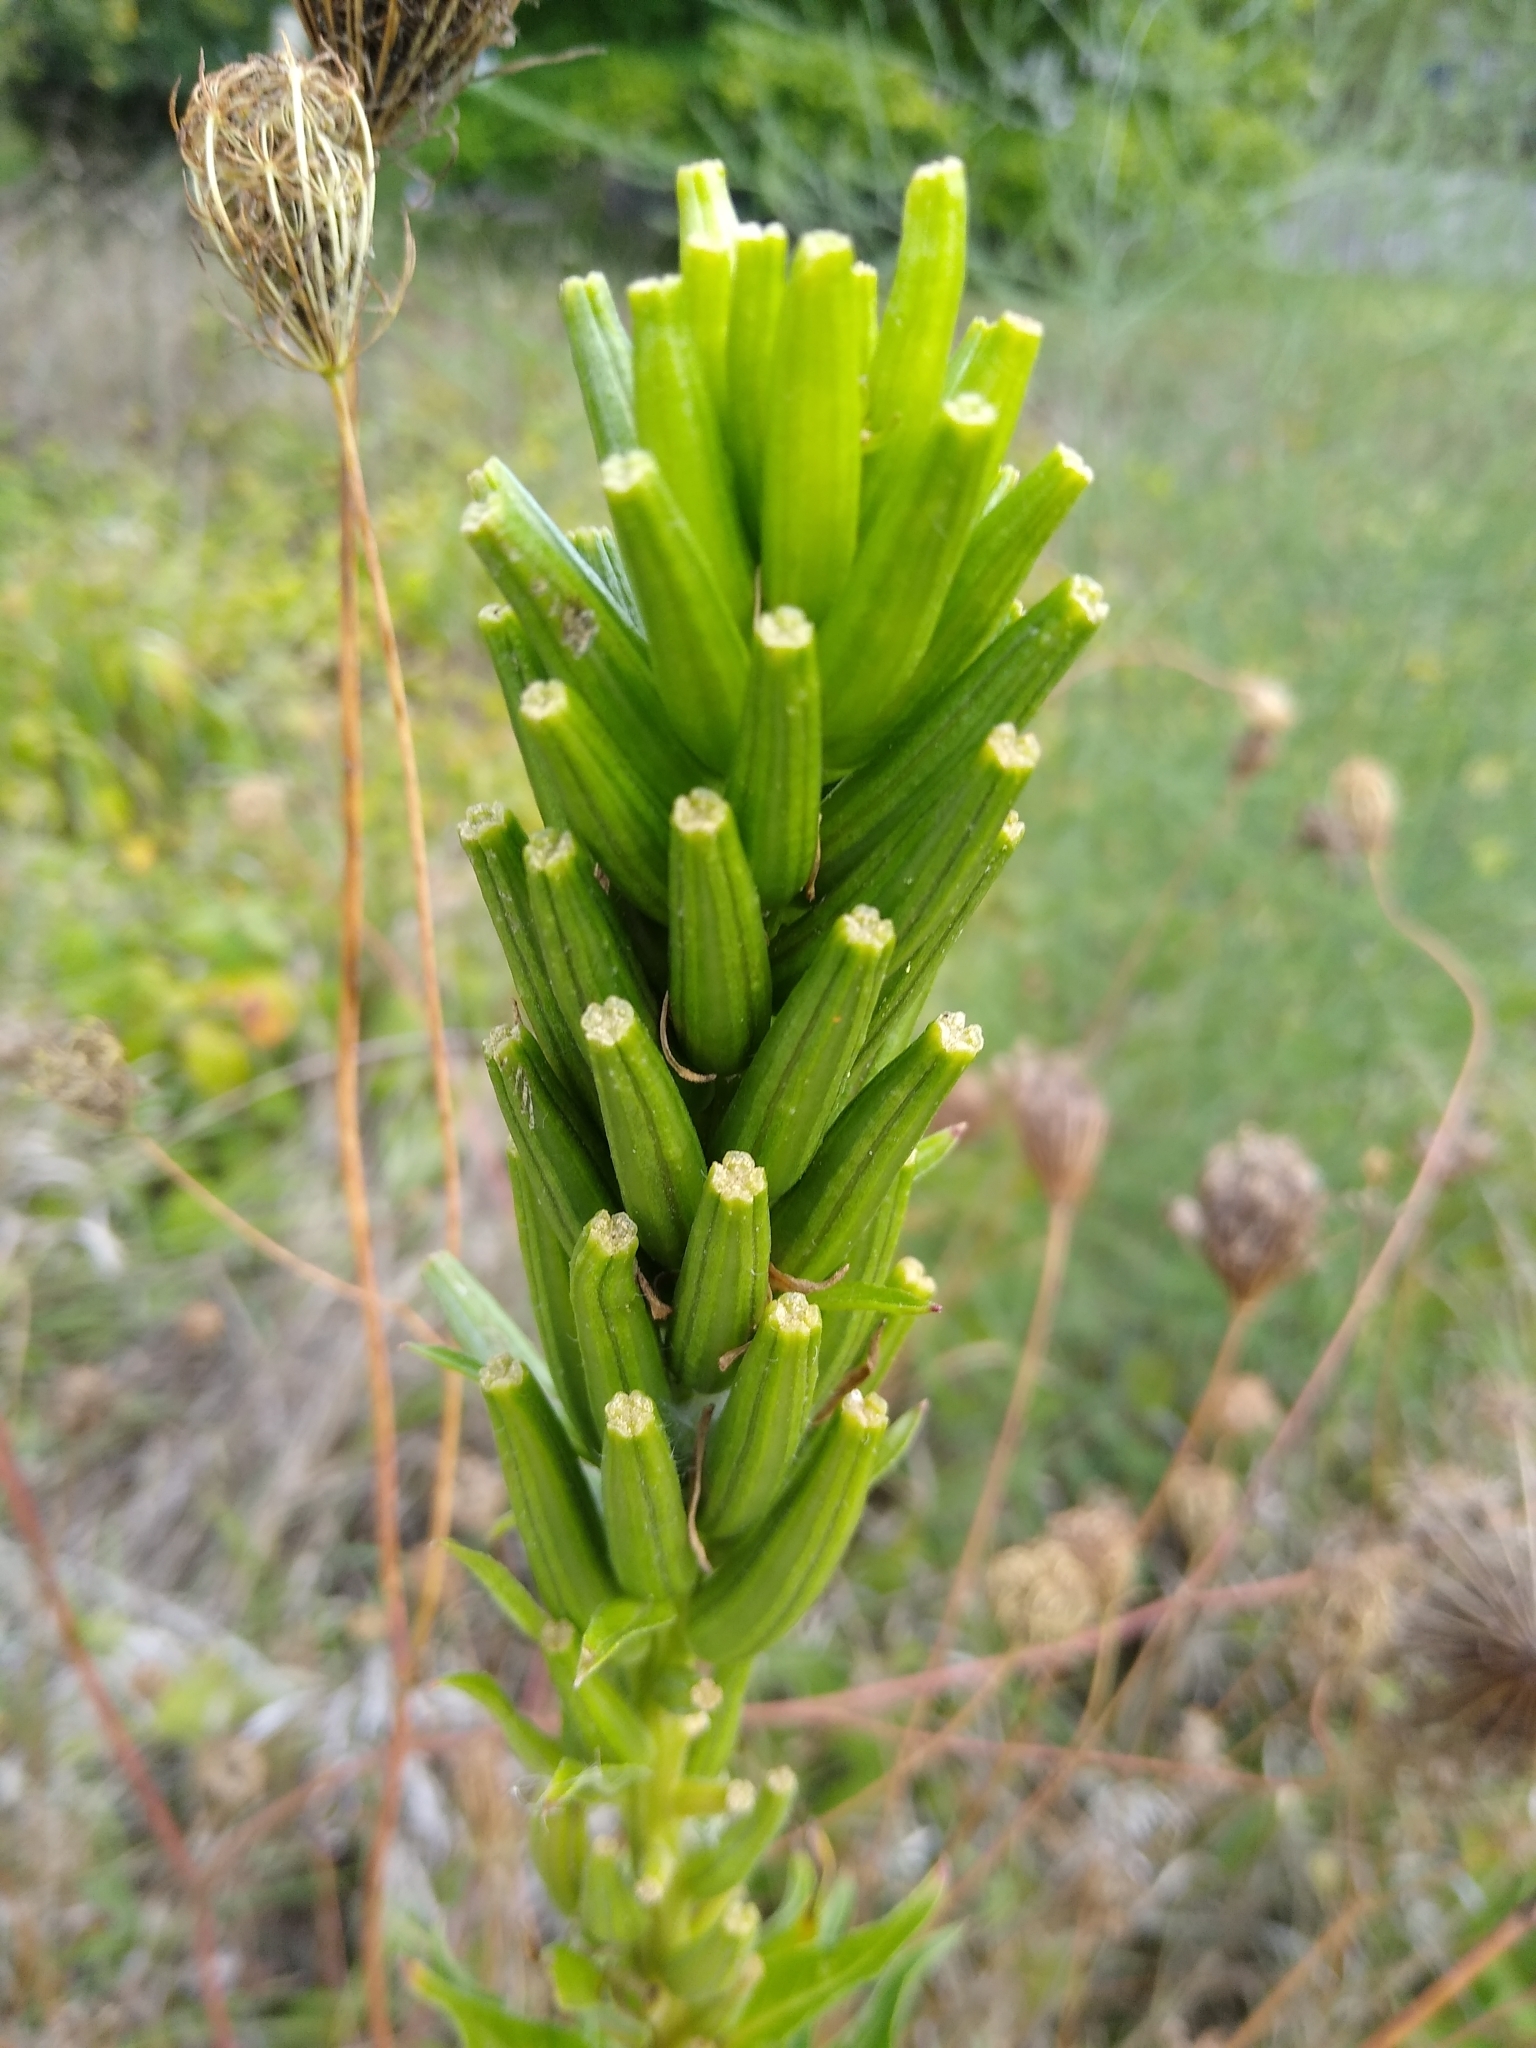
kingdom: Plantae
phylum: Tracheophyta
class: Magnoliopsida
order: Myrtales
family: Onagraceae
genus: Oenothera
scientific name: Oenothera biennis
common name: Common evening-primrose
